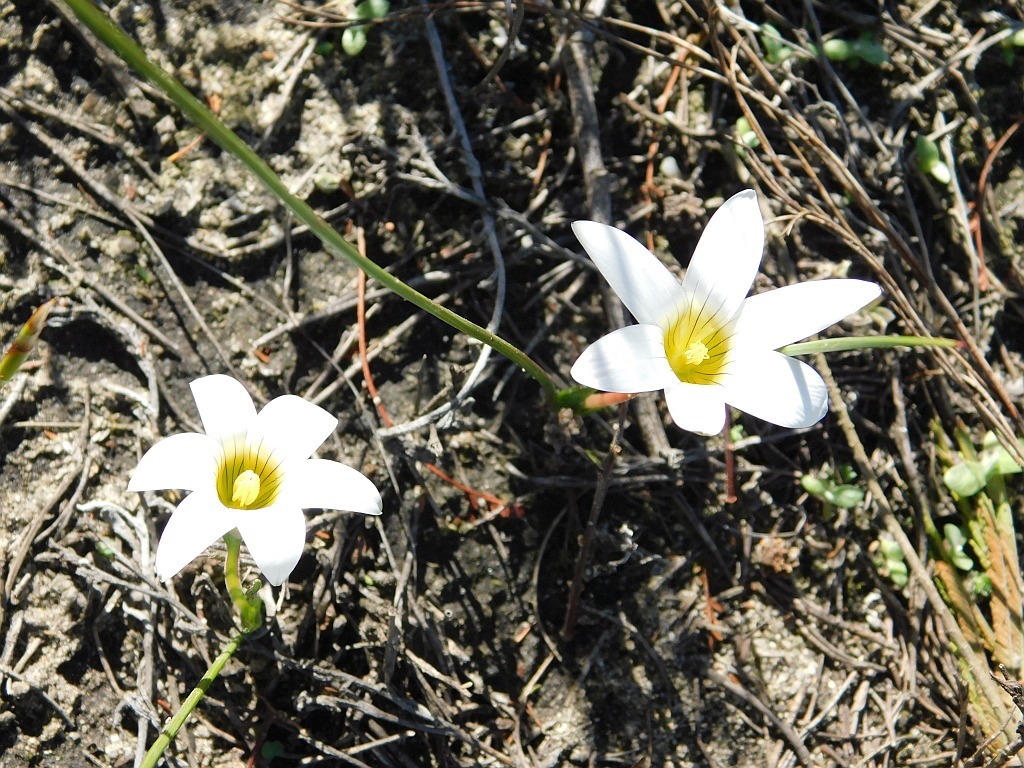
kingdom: Plantae
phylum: Tracheophyta
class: Liliopsida
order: Asparagales
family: Iridaceae
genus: Romulea
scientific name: Romulea flava
